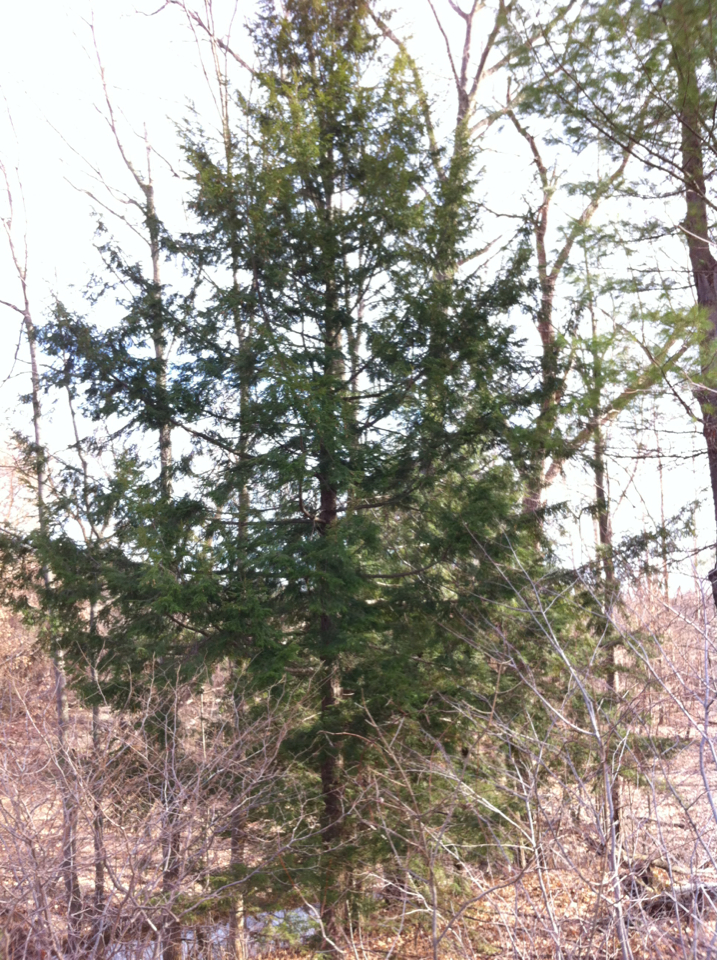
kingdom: Plantae
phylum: Tracheophyta
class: Pinopsida
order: Pinales
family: Pinaceae
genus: Tsuga
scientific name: Tsuga canadensis
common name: Eastern hemlock
